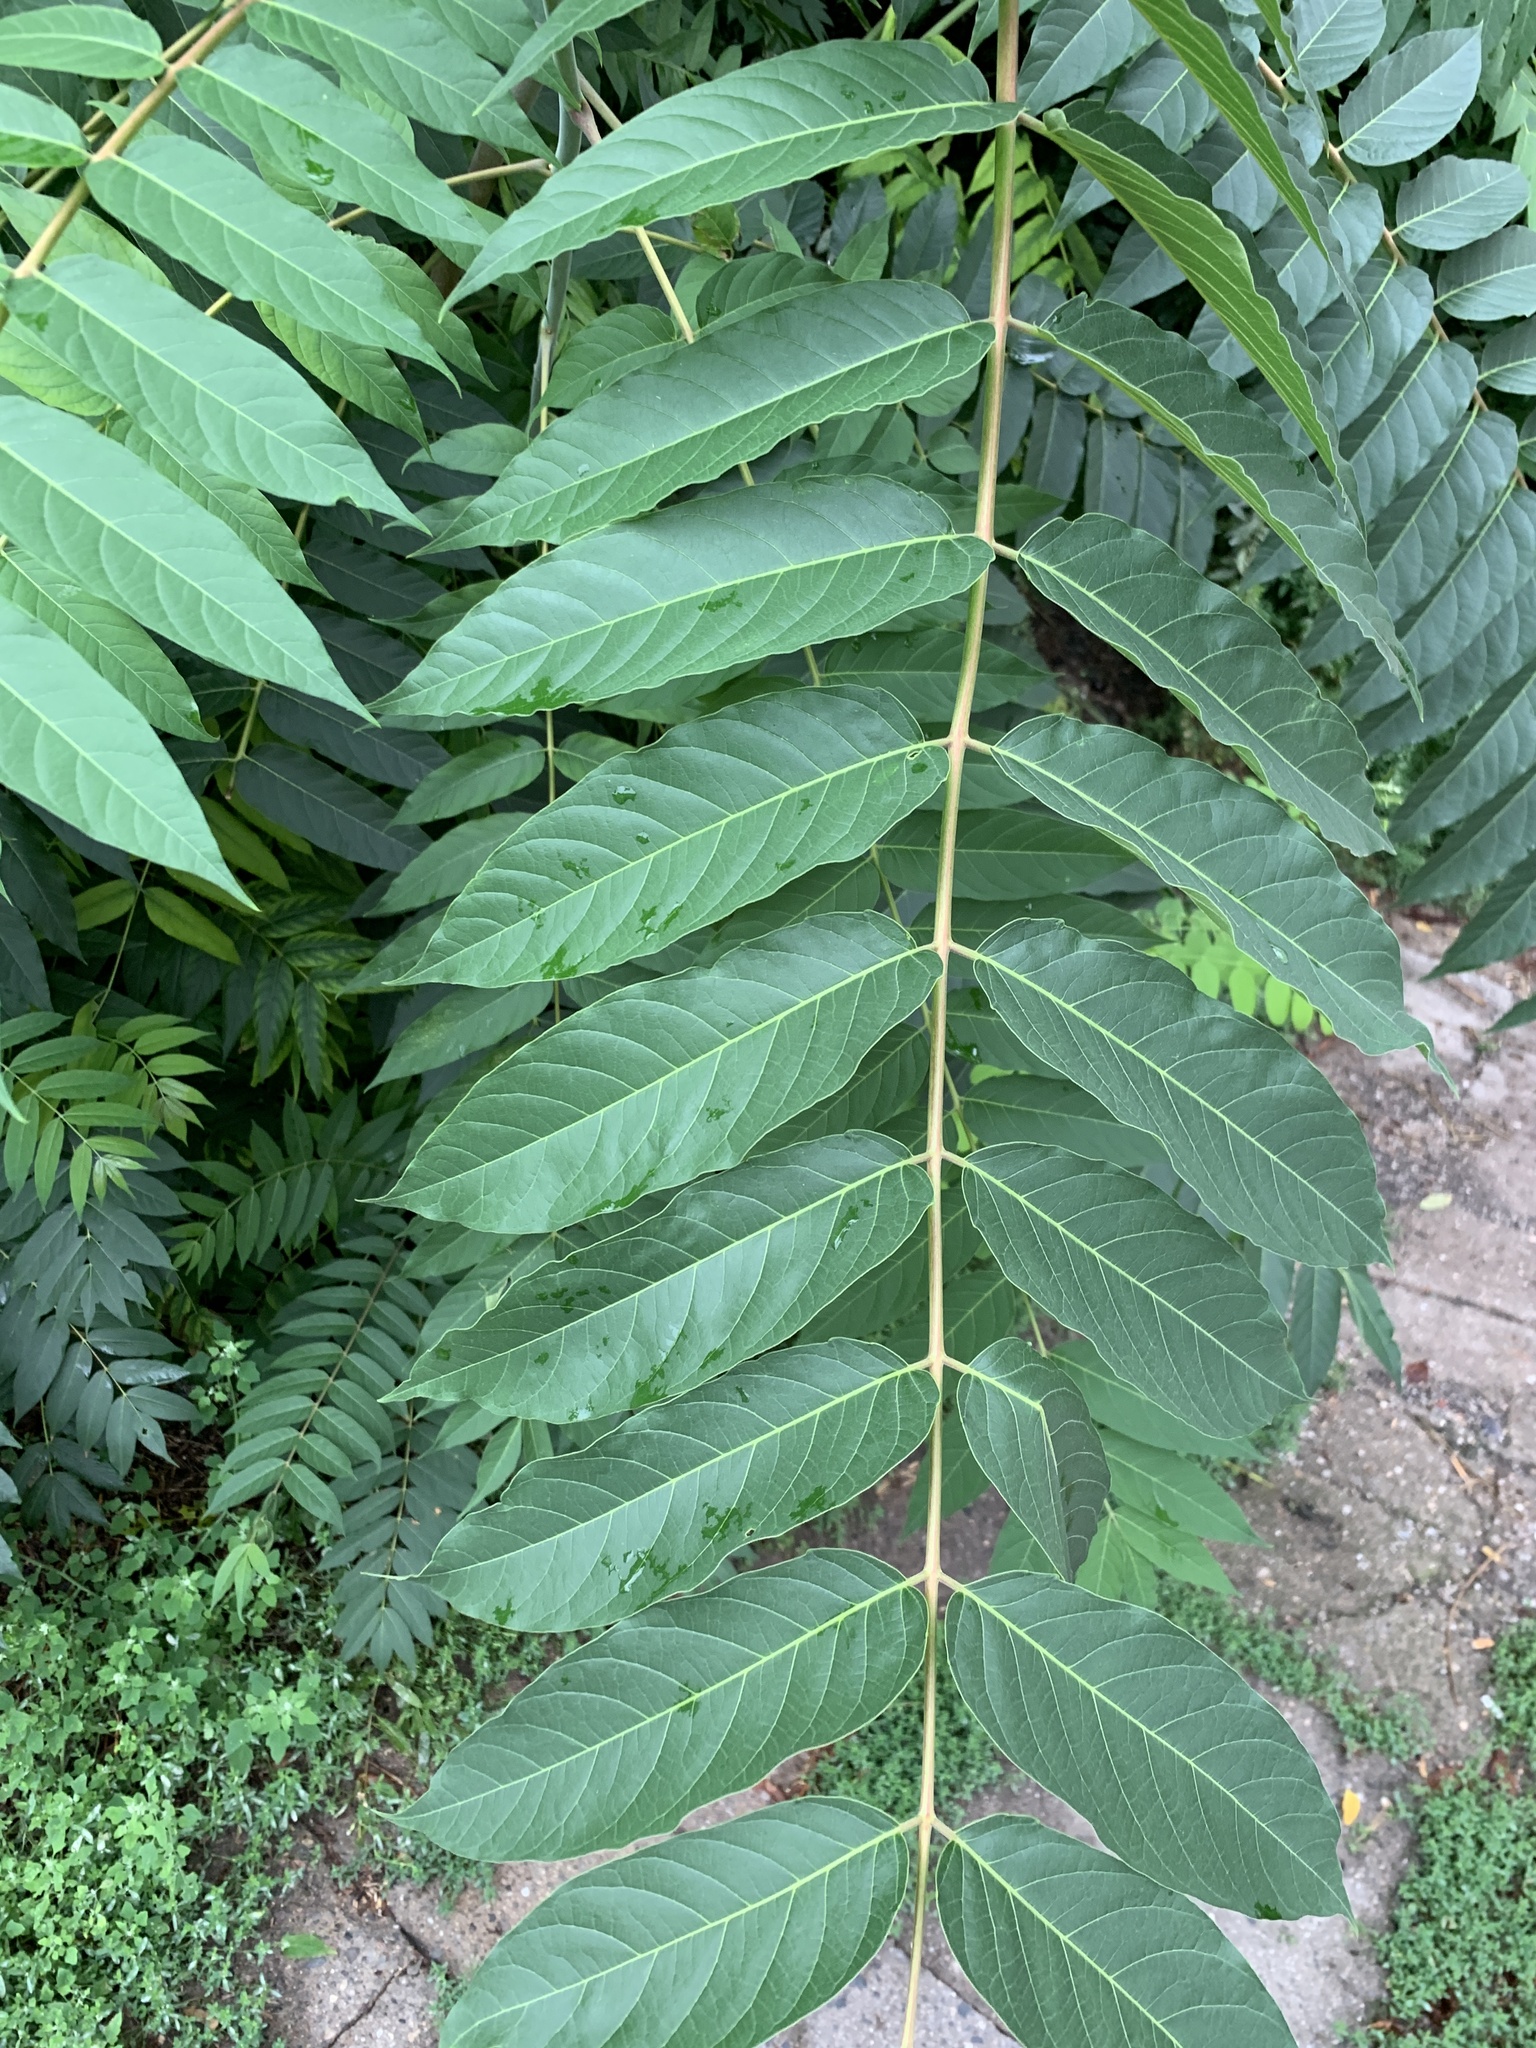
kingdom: Plantae
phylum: Tracheophyta
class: Magnoliopsida
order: Sapindales
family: Simaroubaceae
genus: Ailanthus
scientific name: Ailanthus altissima
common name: Tree-of-heaven
